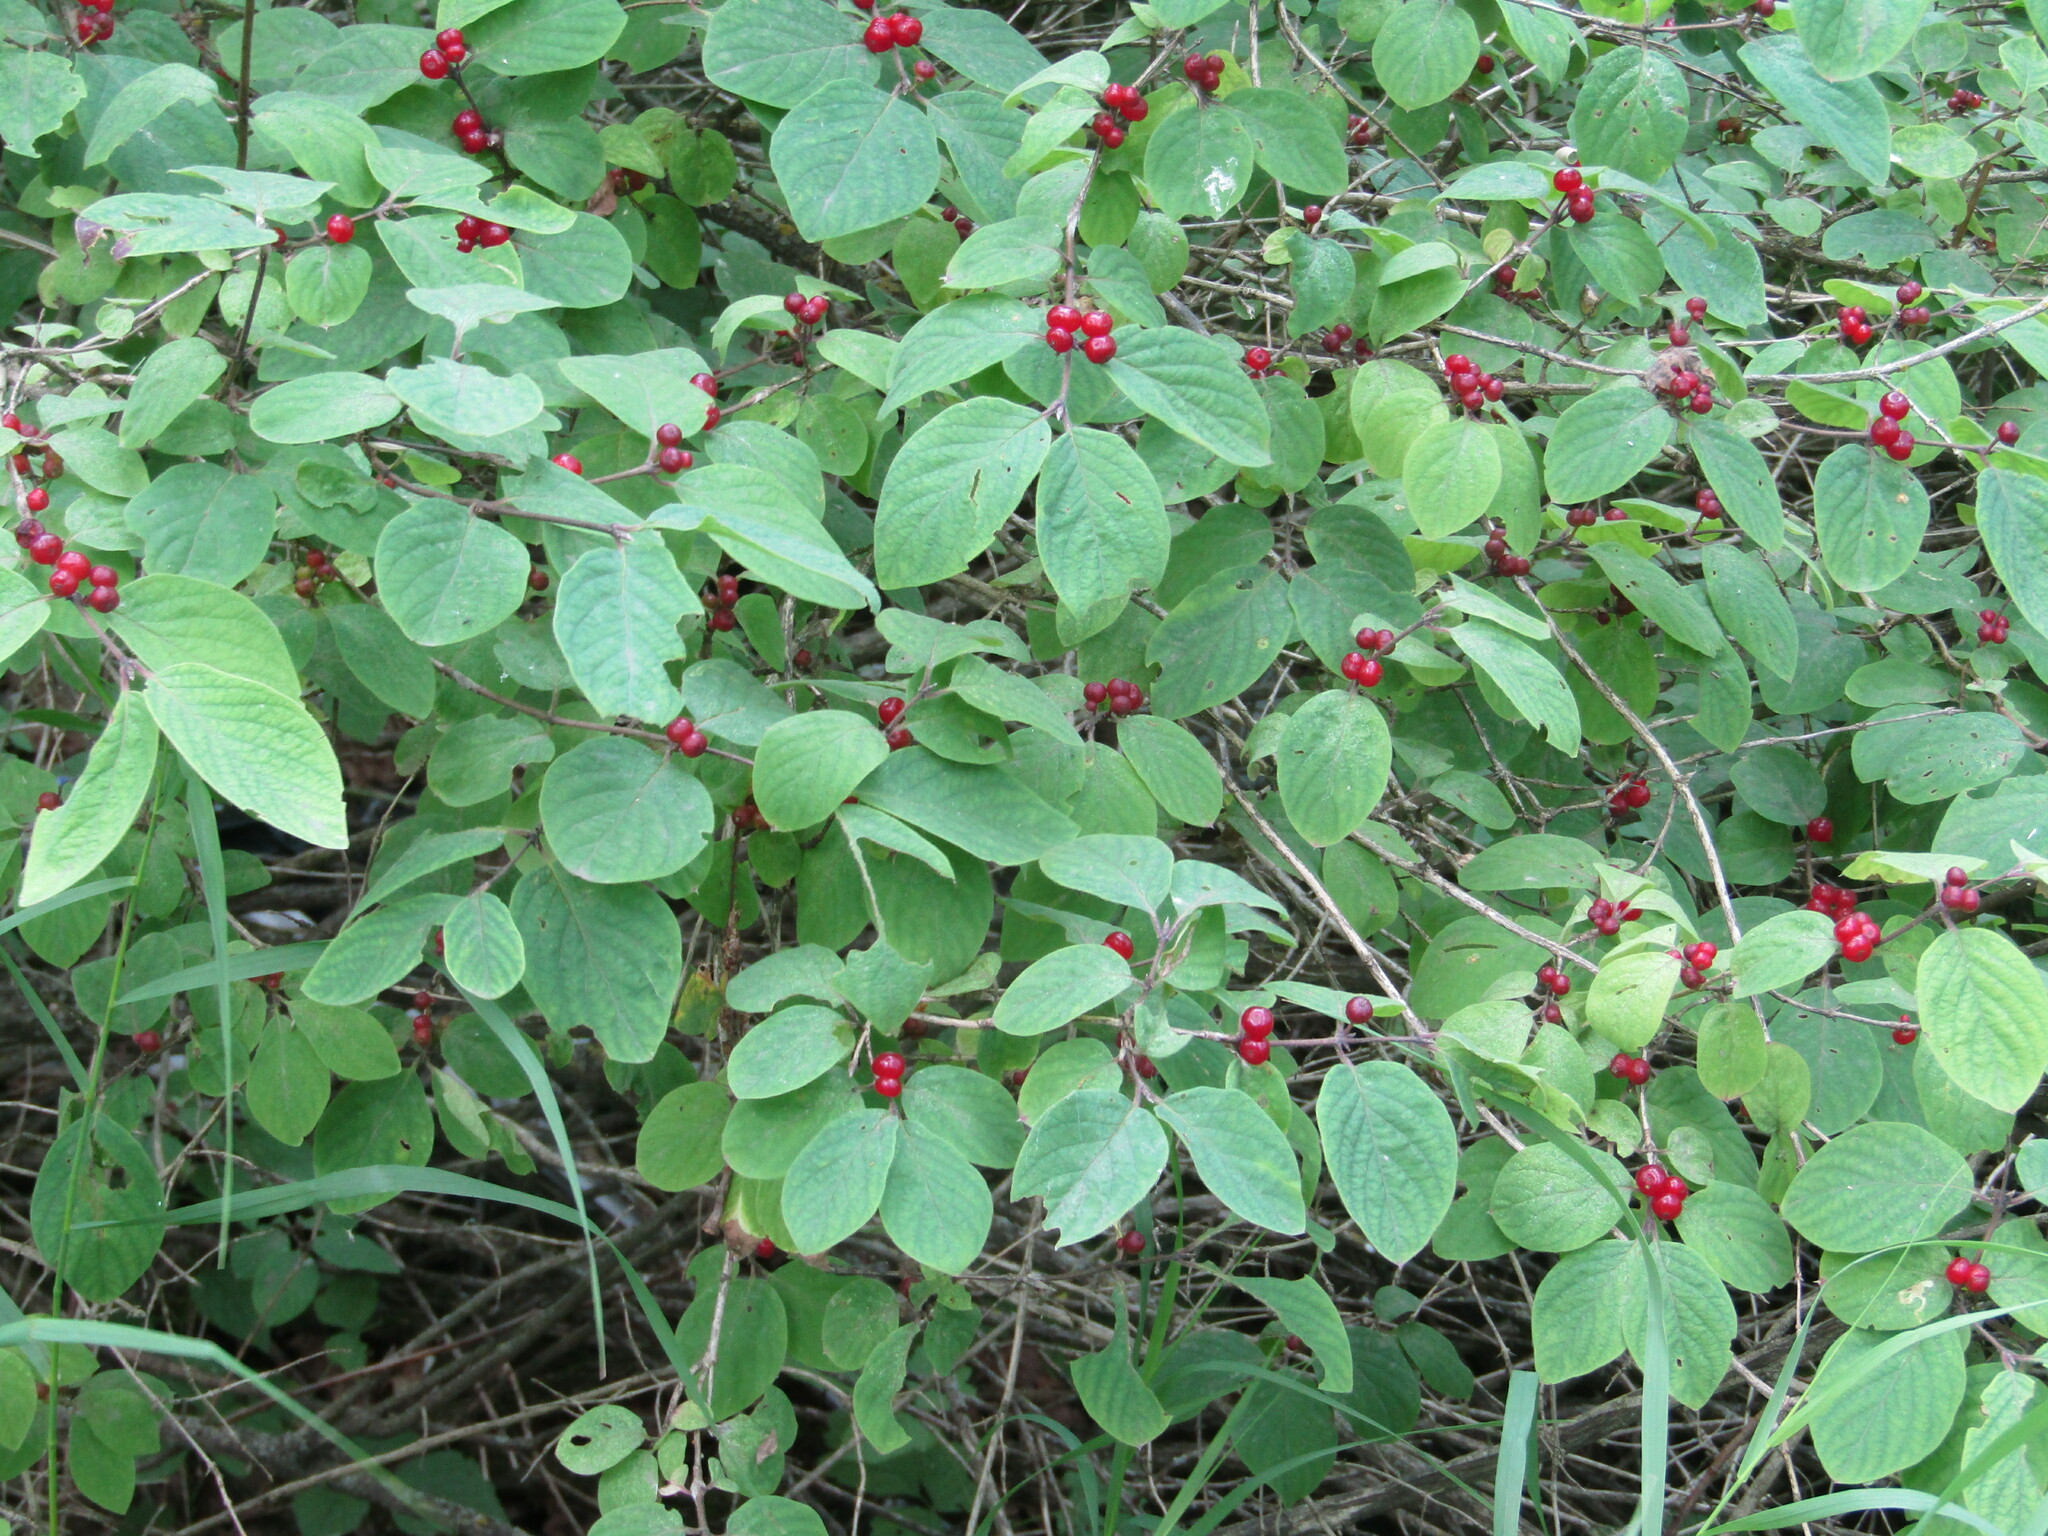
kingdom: Plantae
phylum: Tracheophyta
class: Magnoliopsida
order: Dipsacales
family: Caprifoliaceae
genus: Lonicera
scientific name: Lonicera xylosteum
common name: Fly honeysuckle
